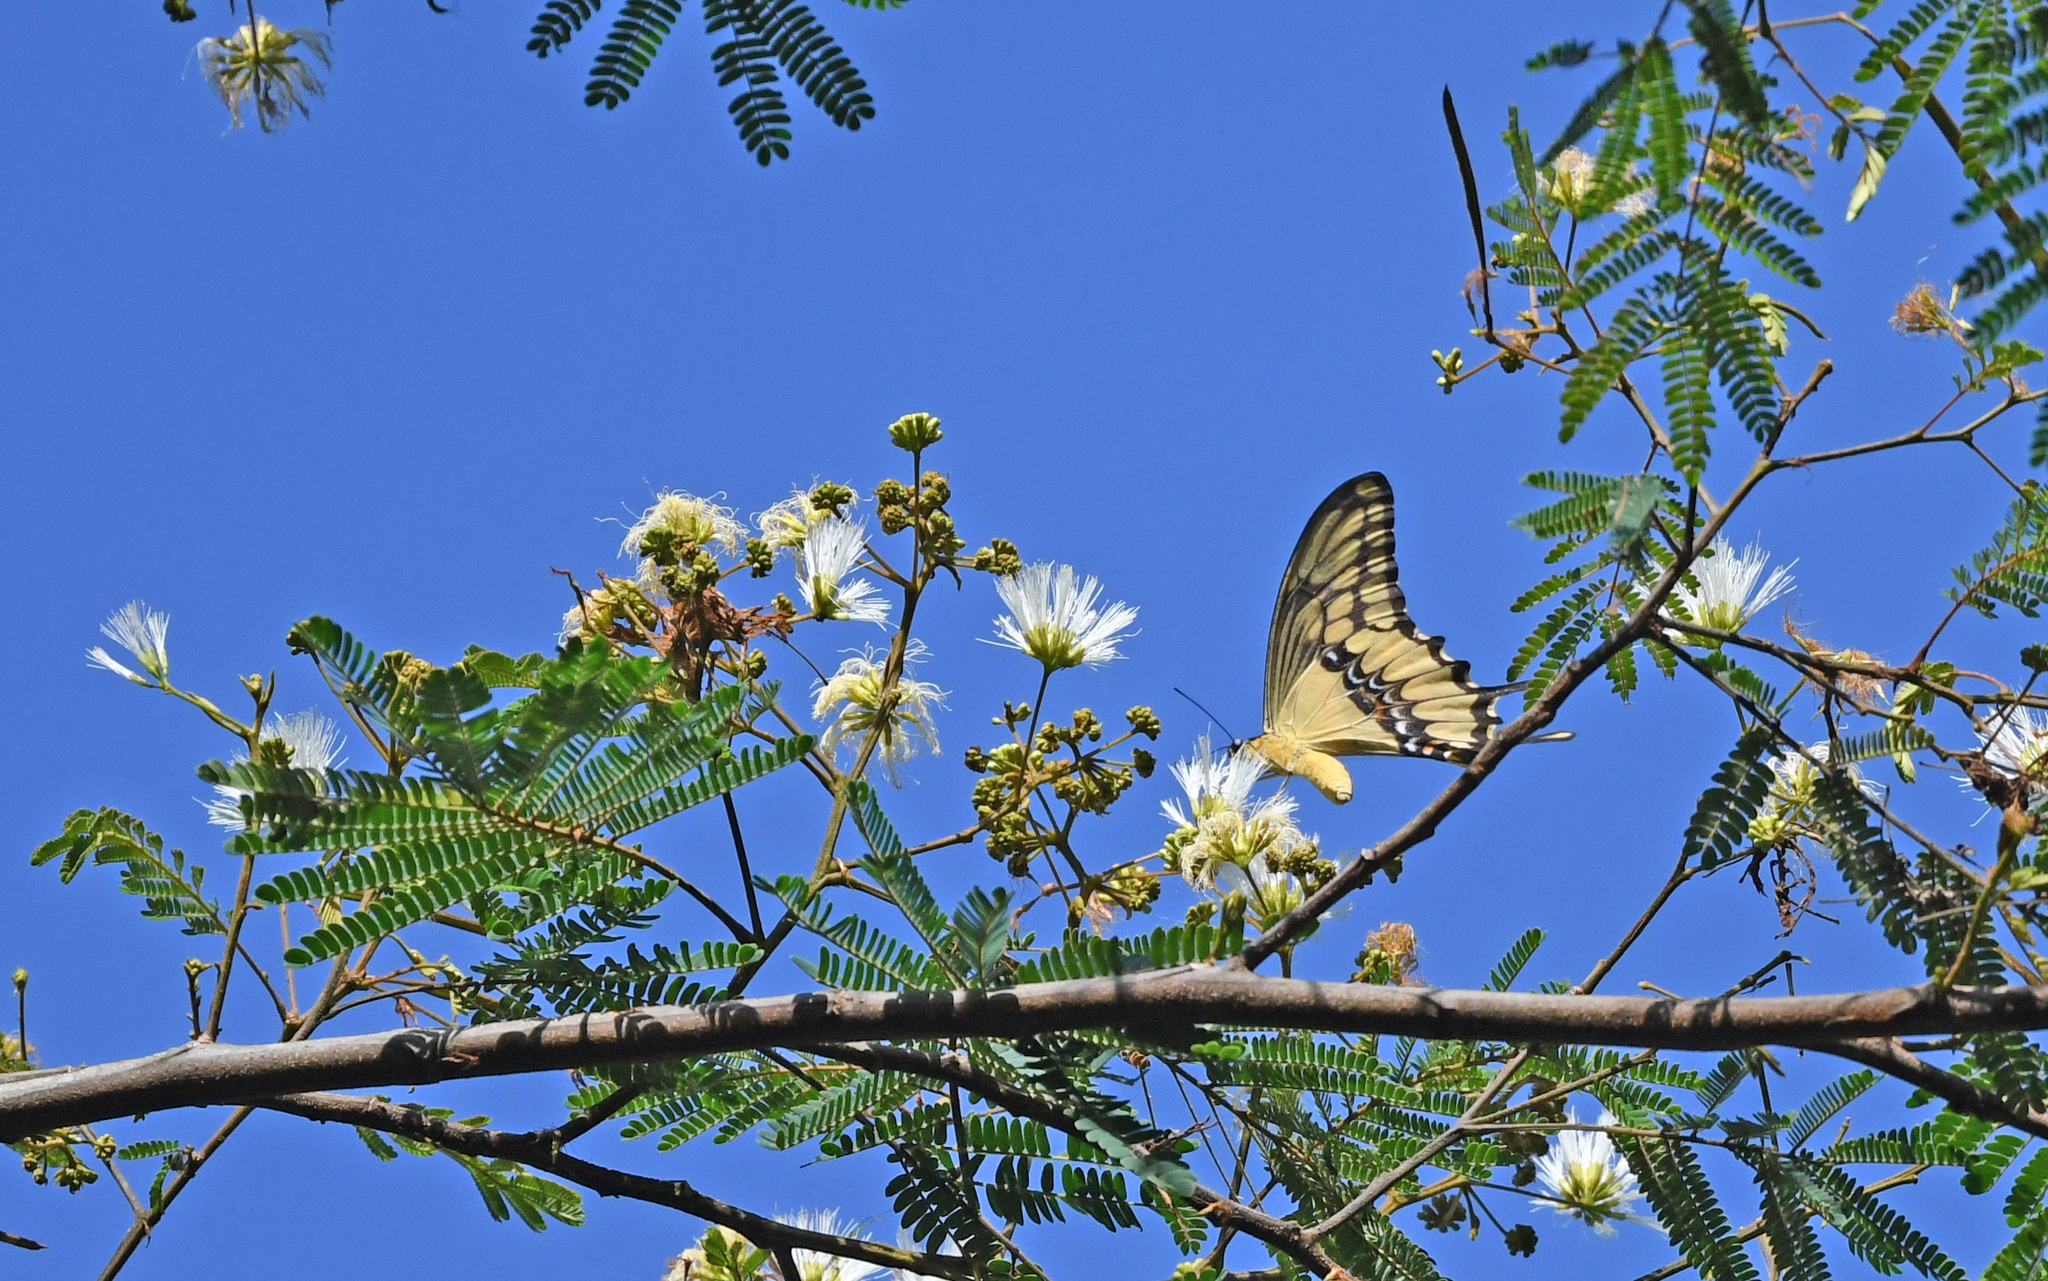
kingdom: Animalia
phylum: Arthropoda
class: Insecta
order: Lepidoptera
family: Papilionidae
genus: Papilio
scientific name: Papilio thoas
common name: King swallowtail
